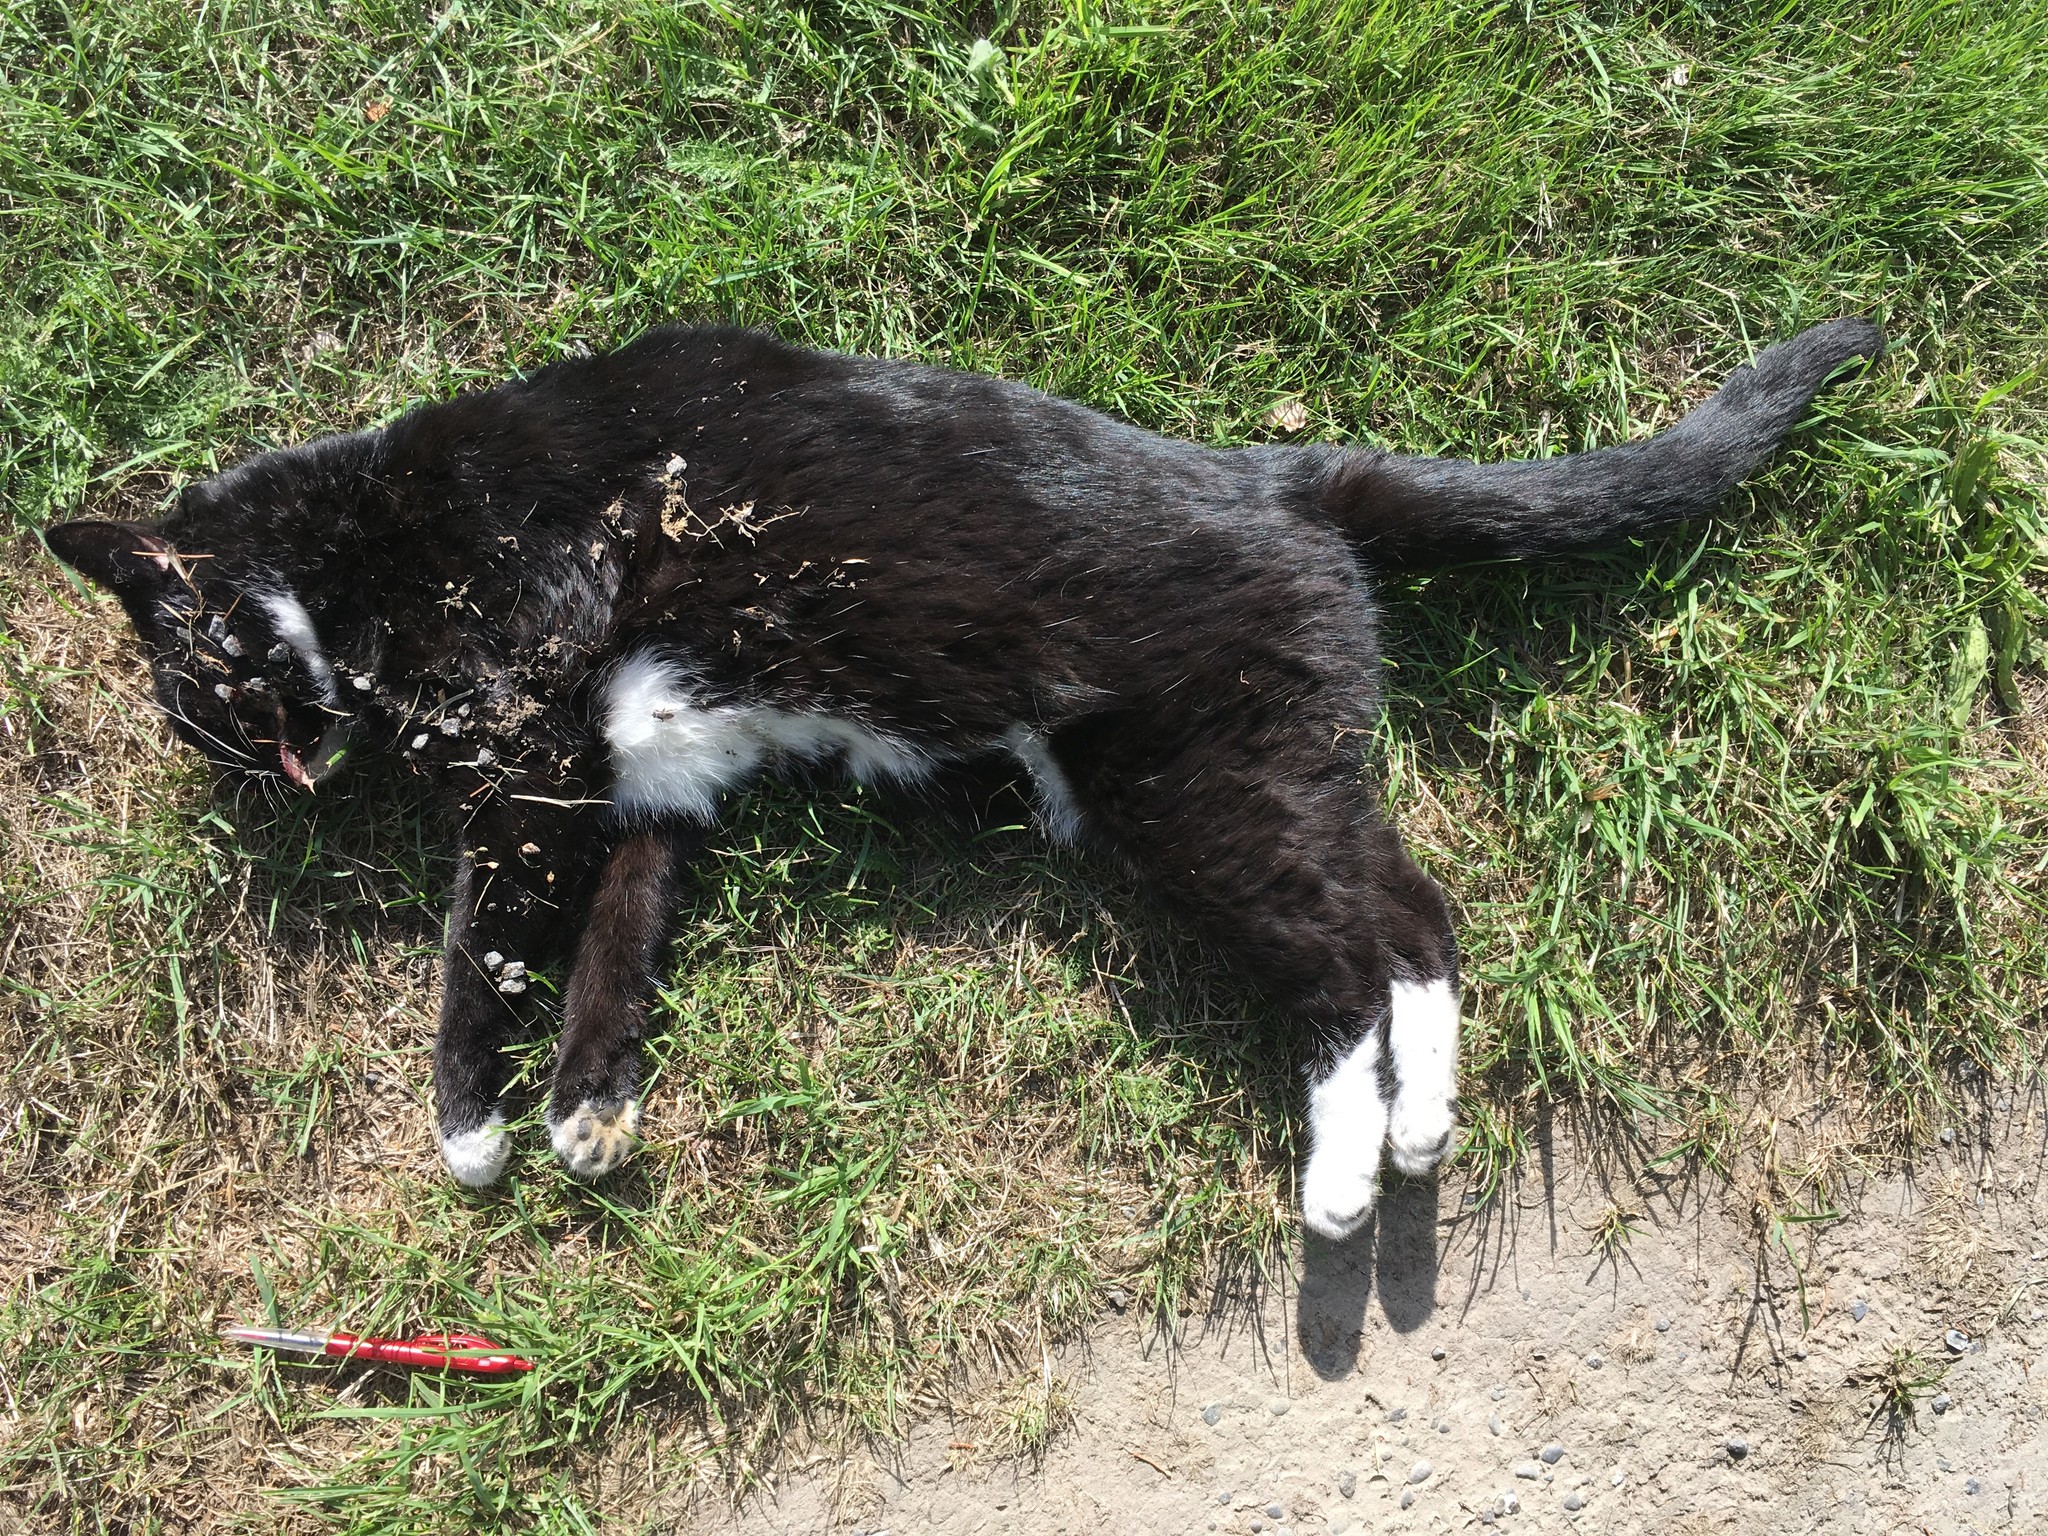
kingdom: Animalia
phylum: Chordata
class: Mammalia
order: Carnivora
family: Felidae
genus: Felis
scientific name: Felis catus
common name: Domestic cat
